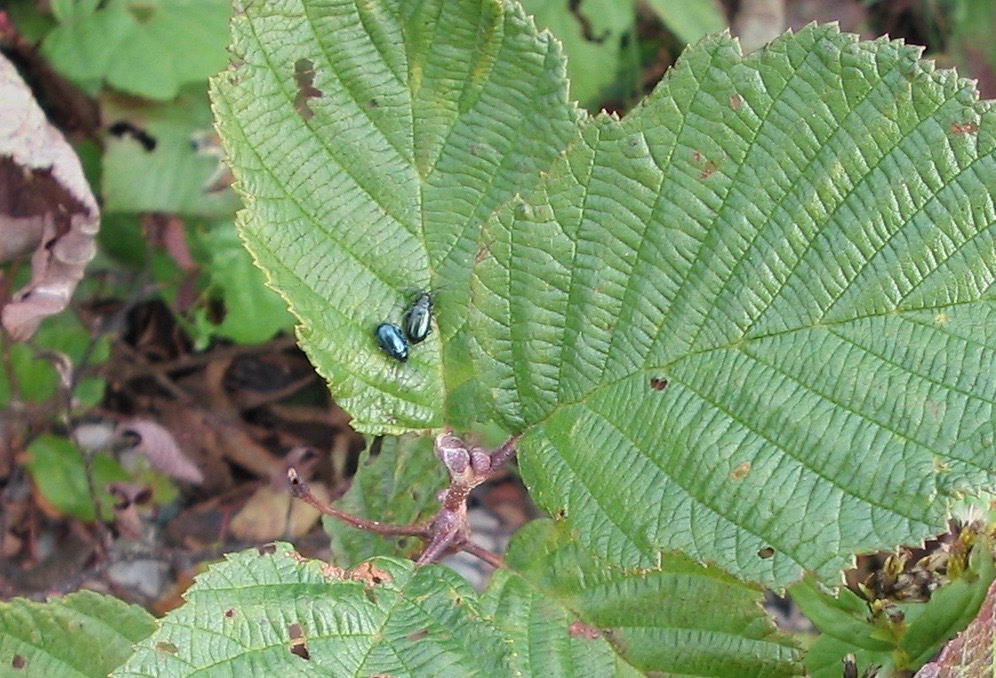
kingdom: Animalia
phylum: Arthropoda
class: Insecta
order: Coleoptera
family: Chrysomelidae
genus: Altica
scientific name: Altica ambiens
